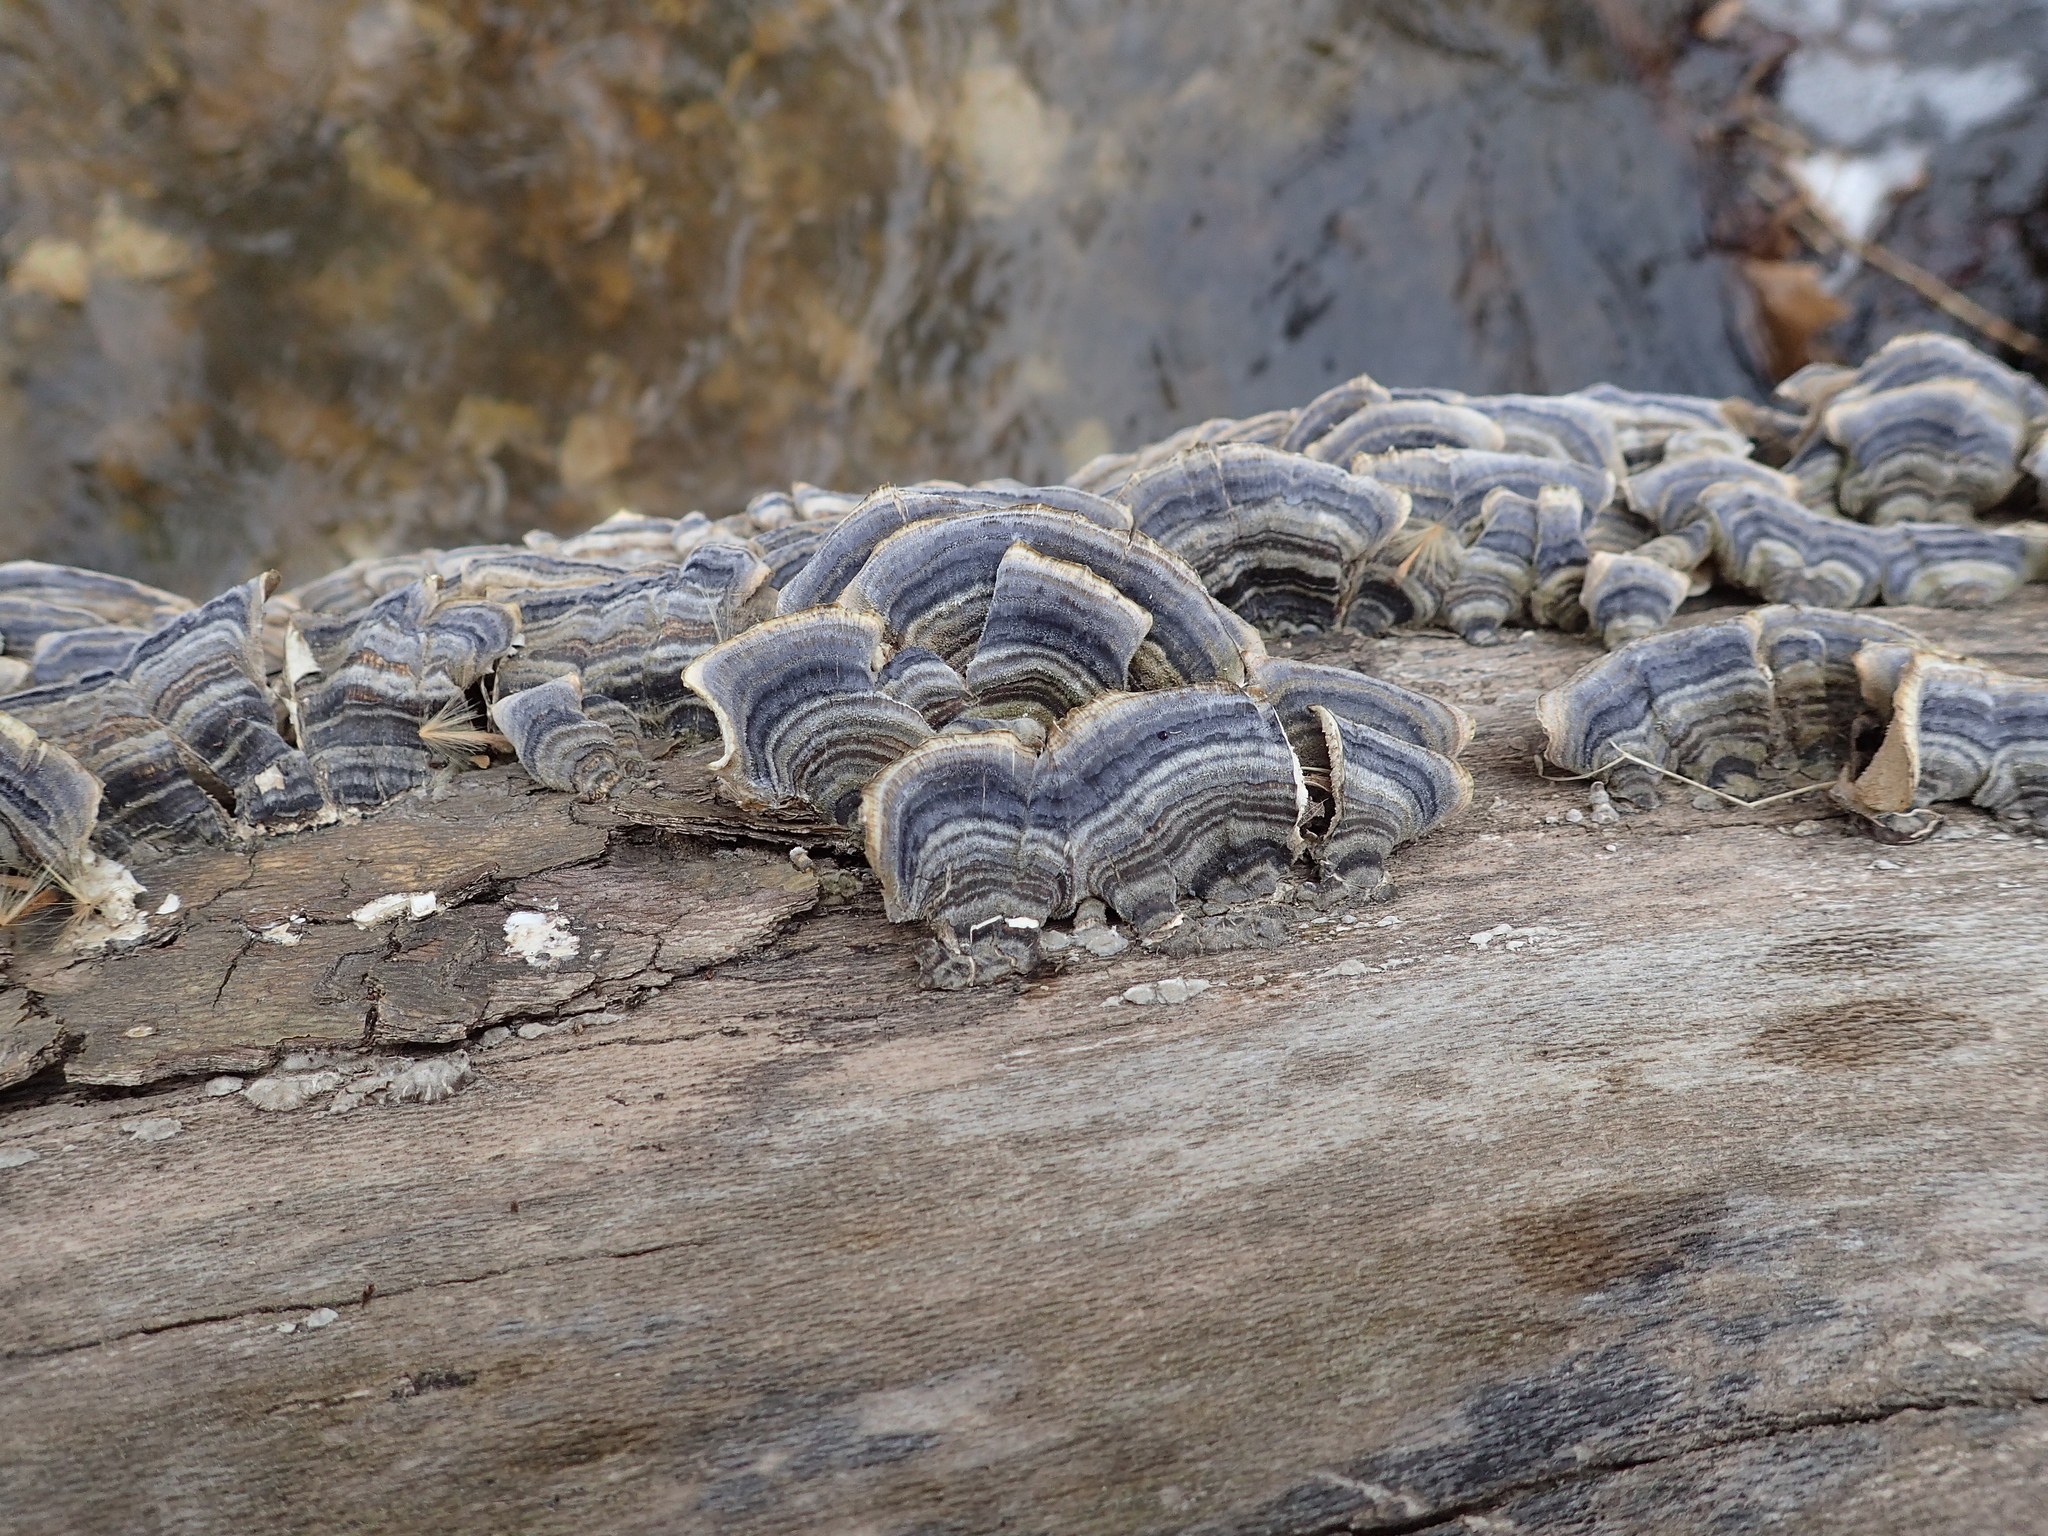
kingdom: Fungi
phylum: Basidiomycota
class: Agaricomycetes
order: Polyporales
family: Polyporaceae
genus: Trametes
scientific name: Trametes versicolor
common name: Turkeytail
